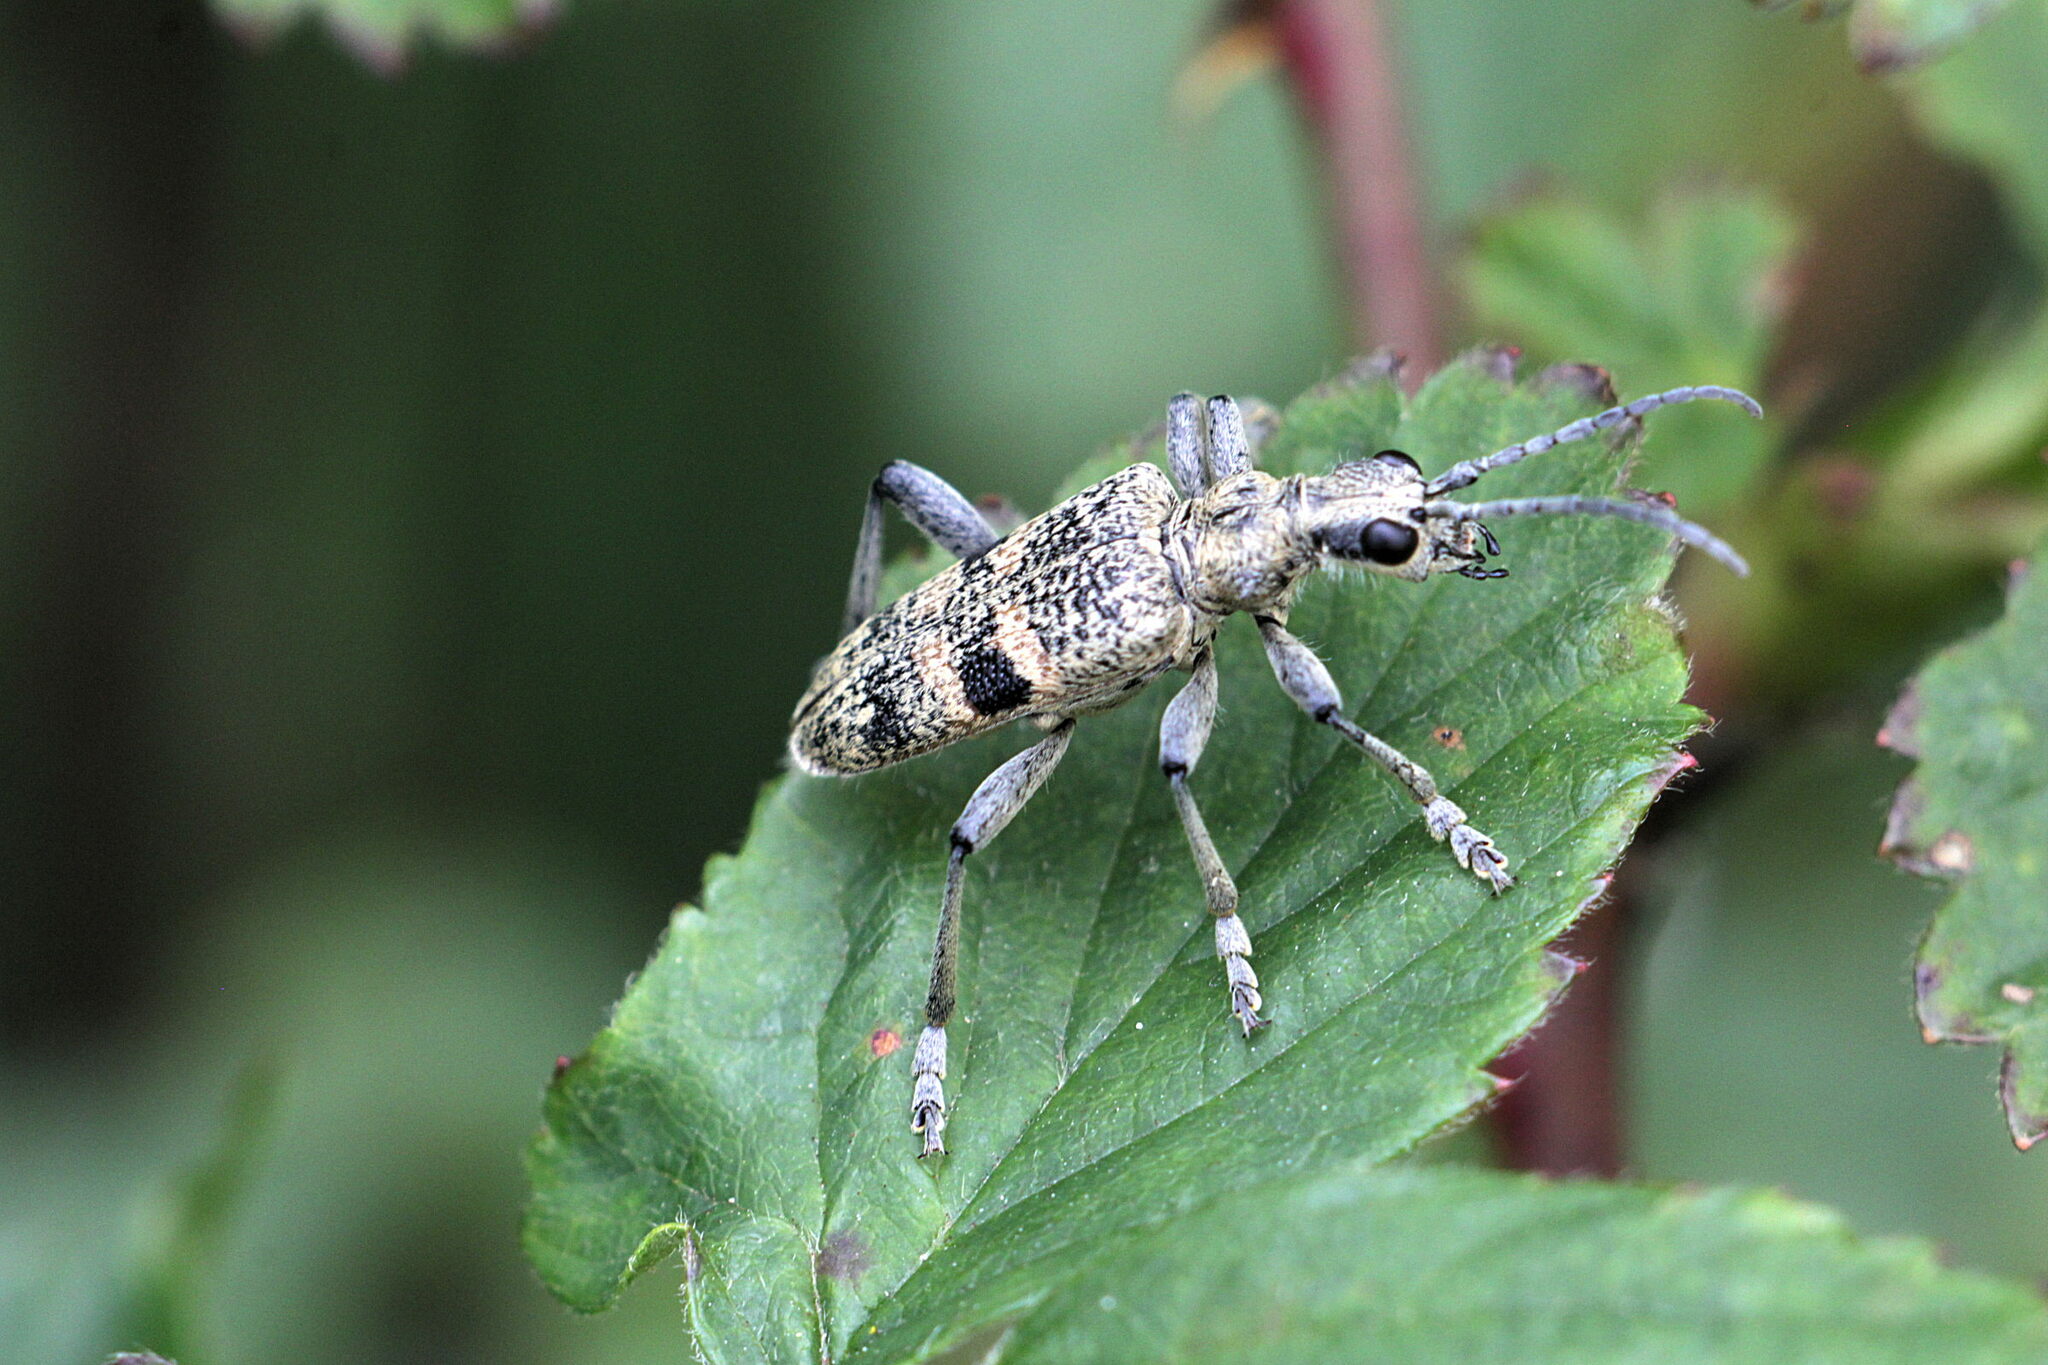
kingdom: Animalia
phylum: Arthropoda
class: Insecta
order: Coleoptera
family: Cerambycidae
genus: Rhagium
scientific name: Rhagium mordax
